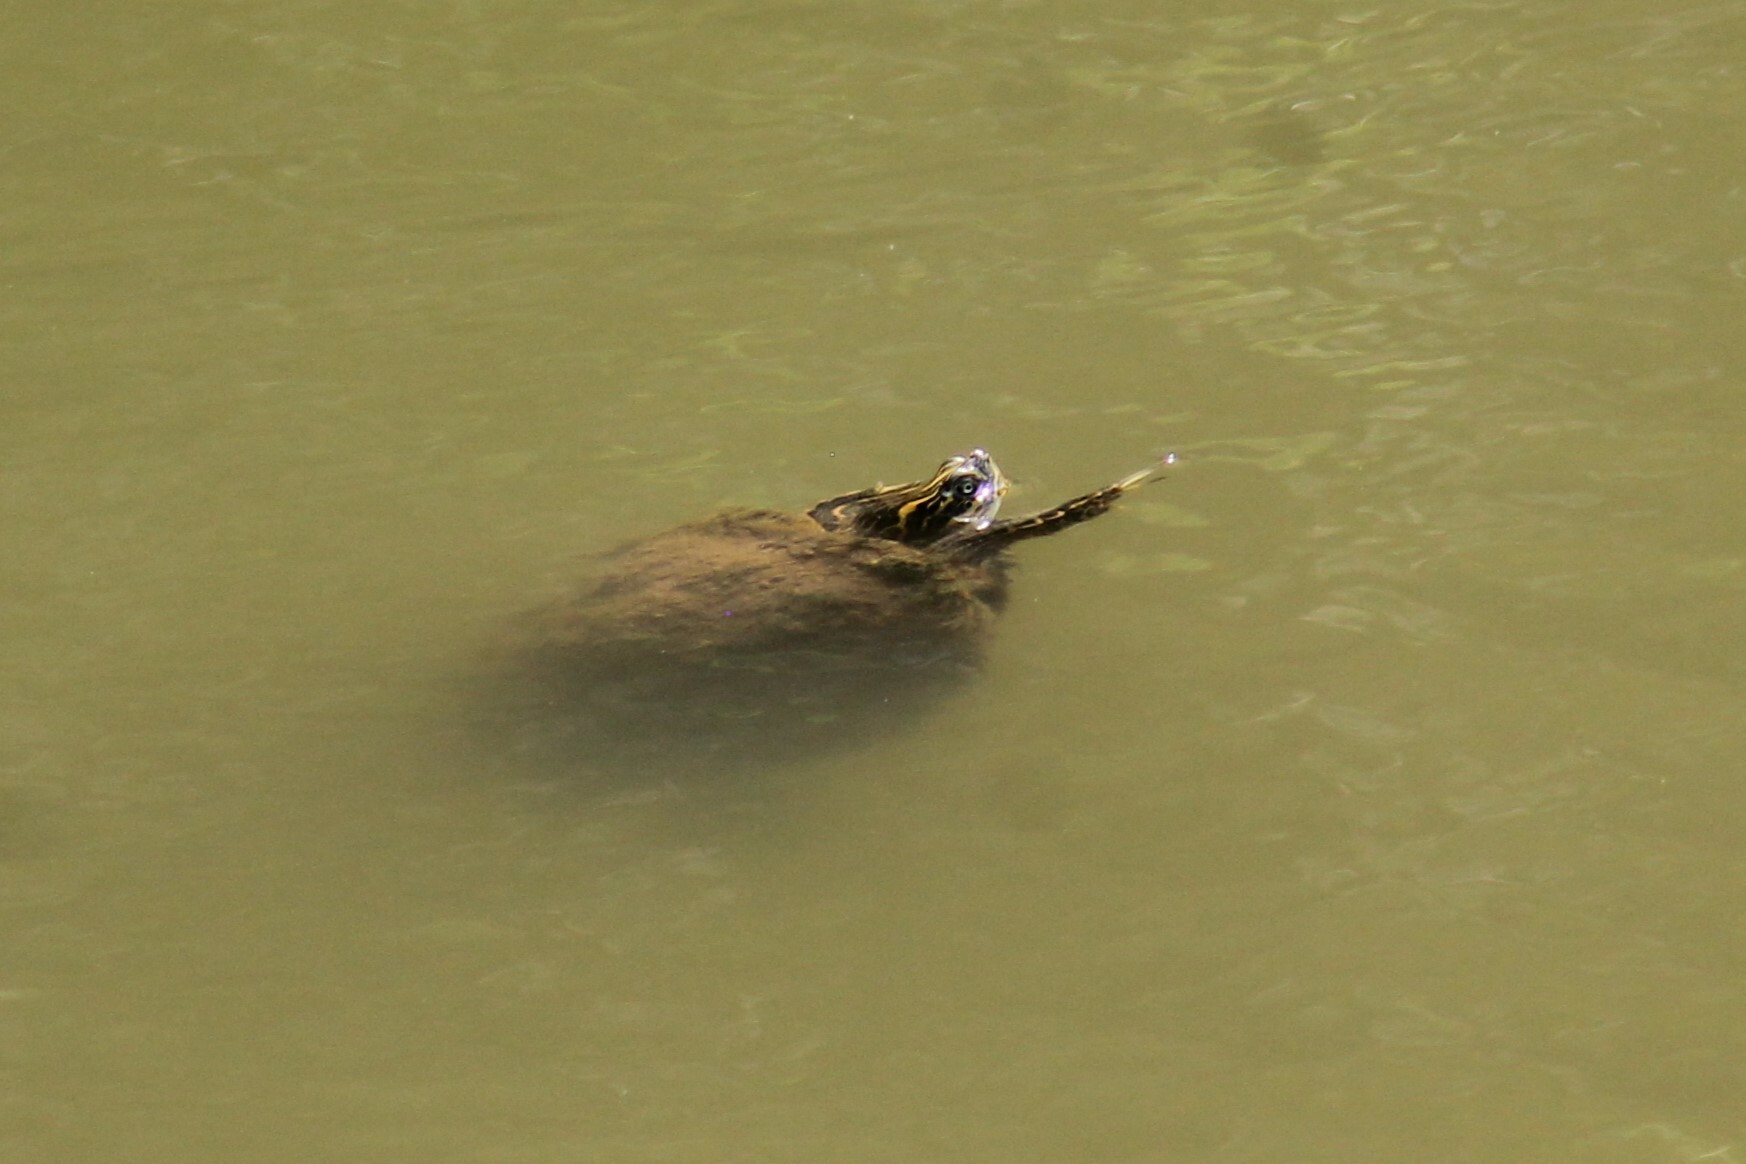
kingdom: Animalia
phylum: Chordata
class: Testudines
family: Emydidae
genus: Pseudemys
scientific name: Pseudemys concinna
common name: Eastern river cooter
